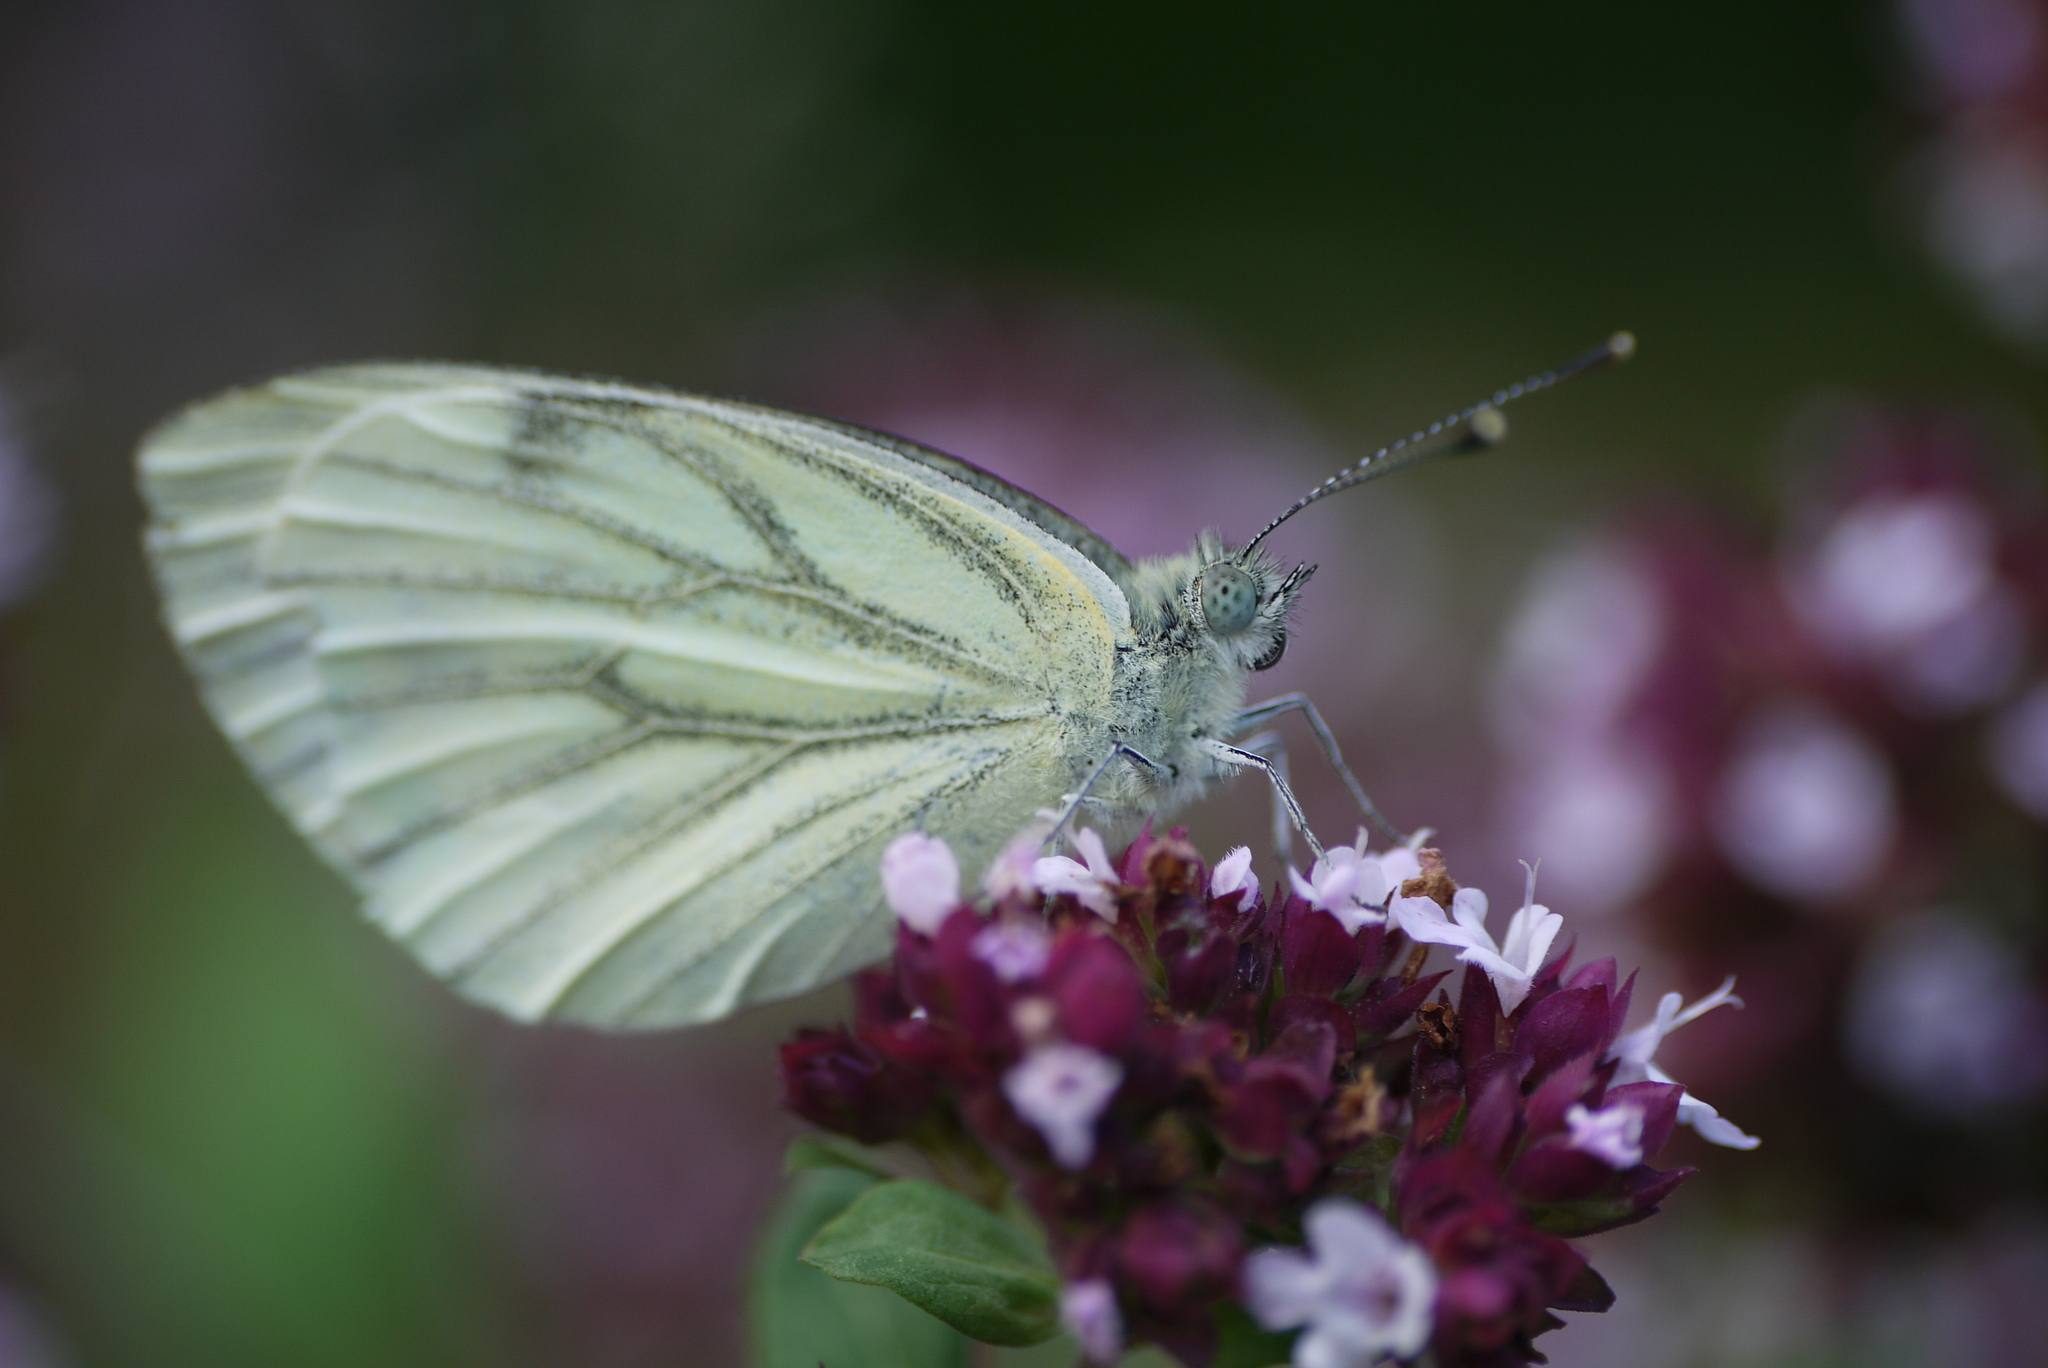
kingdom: Animalia
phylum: Arthropoda
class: Insecta
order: Lepidoptera
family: Pieridae
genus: Pieris
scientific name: Pieris napi
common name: Green-veined white
